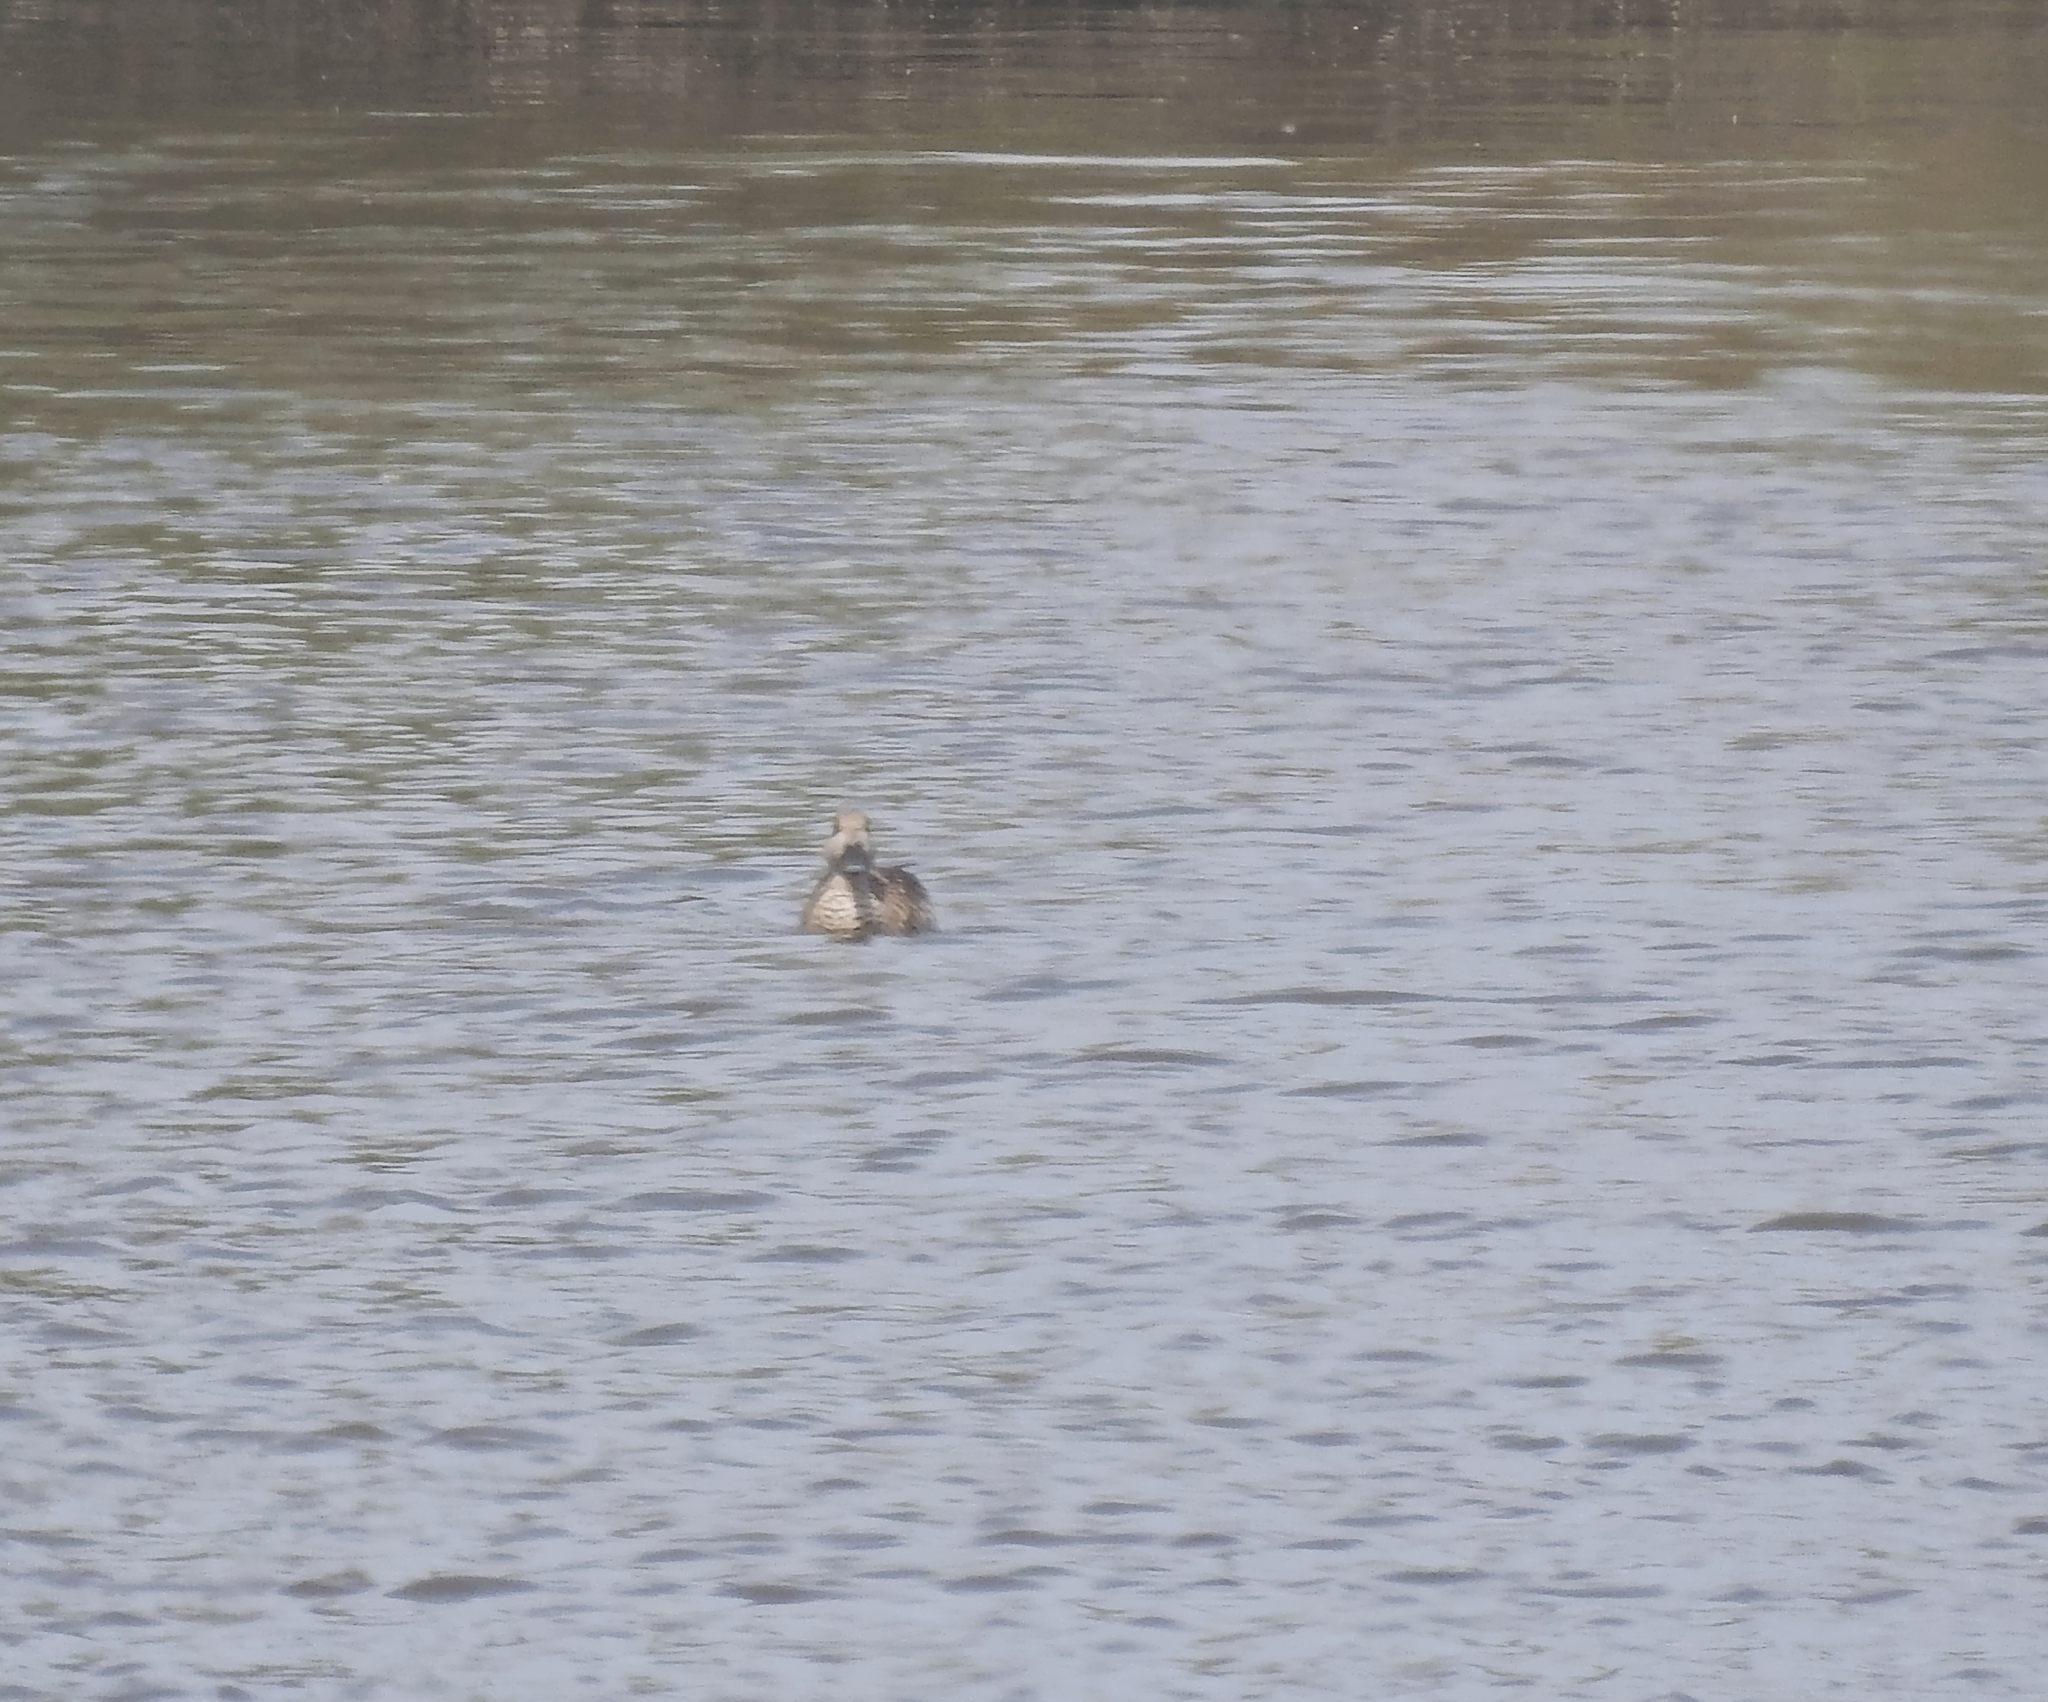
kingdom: Animalia
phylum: Chordata
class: Aves
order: Anseriformes
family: Anatidae
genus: Marmaronetta
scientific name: Marmaronetta angustirostris
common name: Marbled duck
